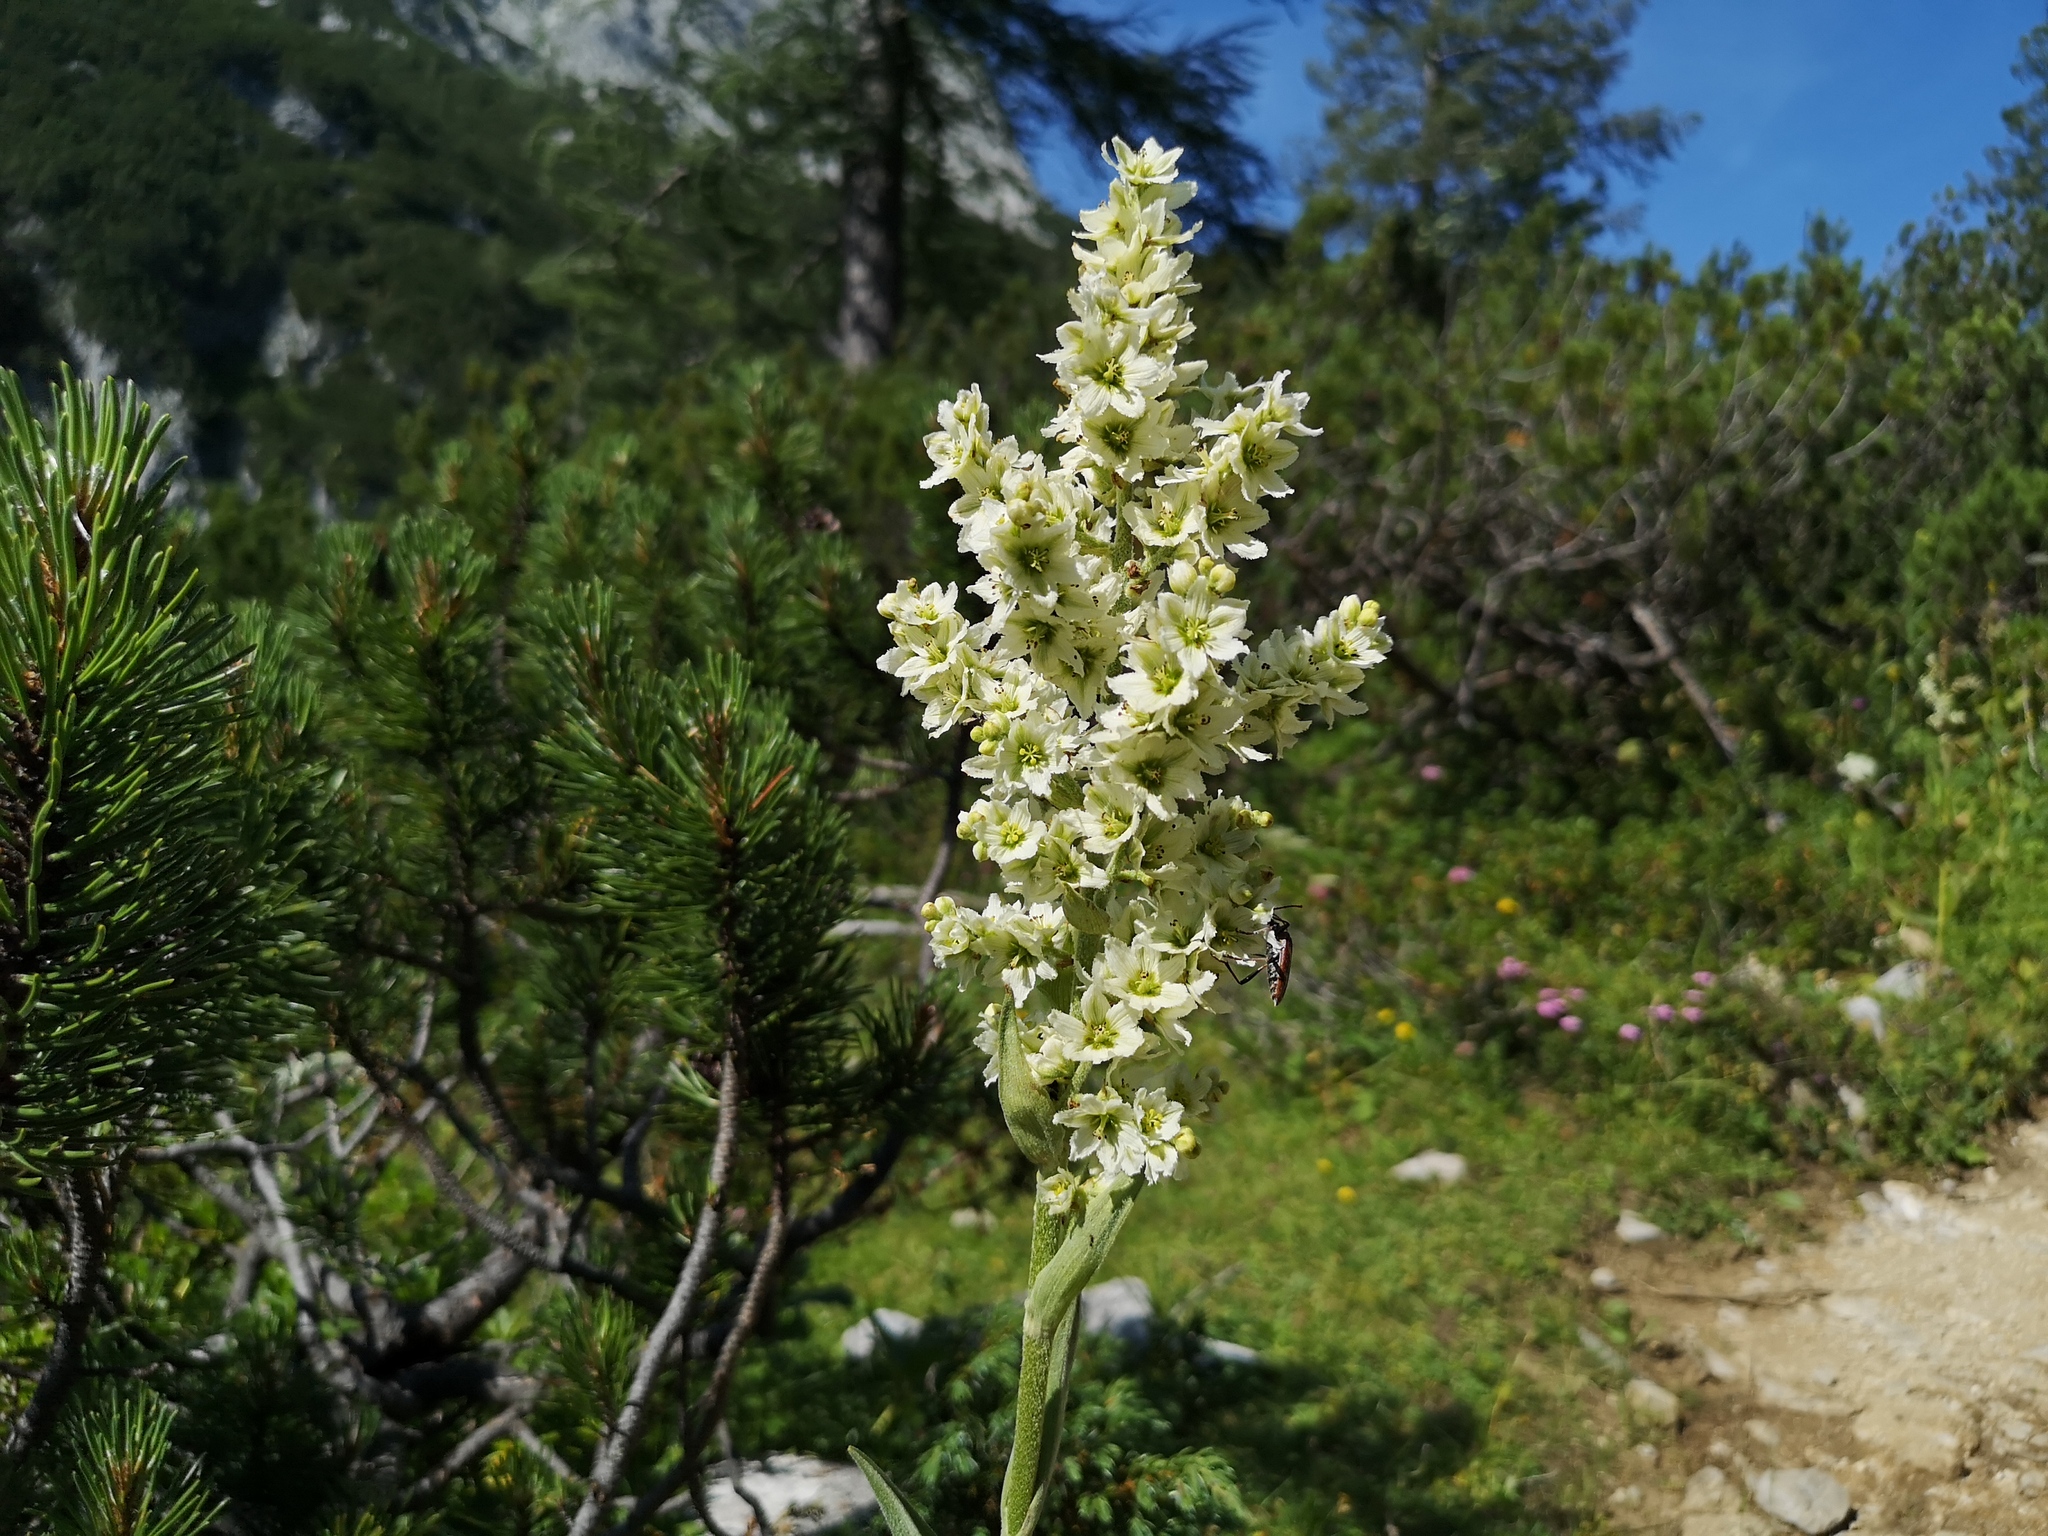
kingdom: Plantae
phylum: Tracheophyta
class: Liliopsida
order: Liliales
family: Melanthiaceae
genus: Veratrum
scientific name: Veratrum album
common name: White veratrum
